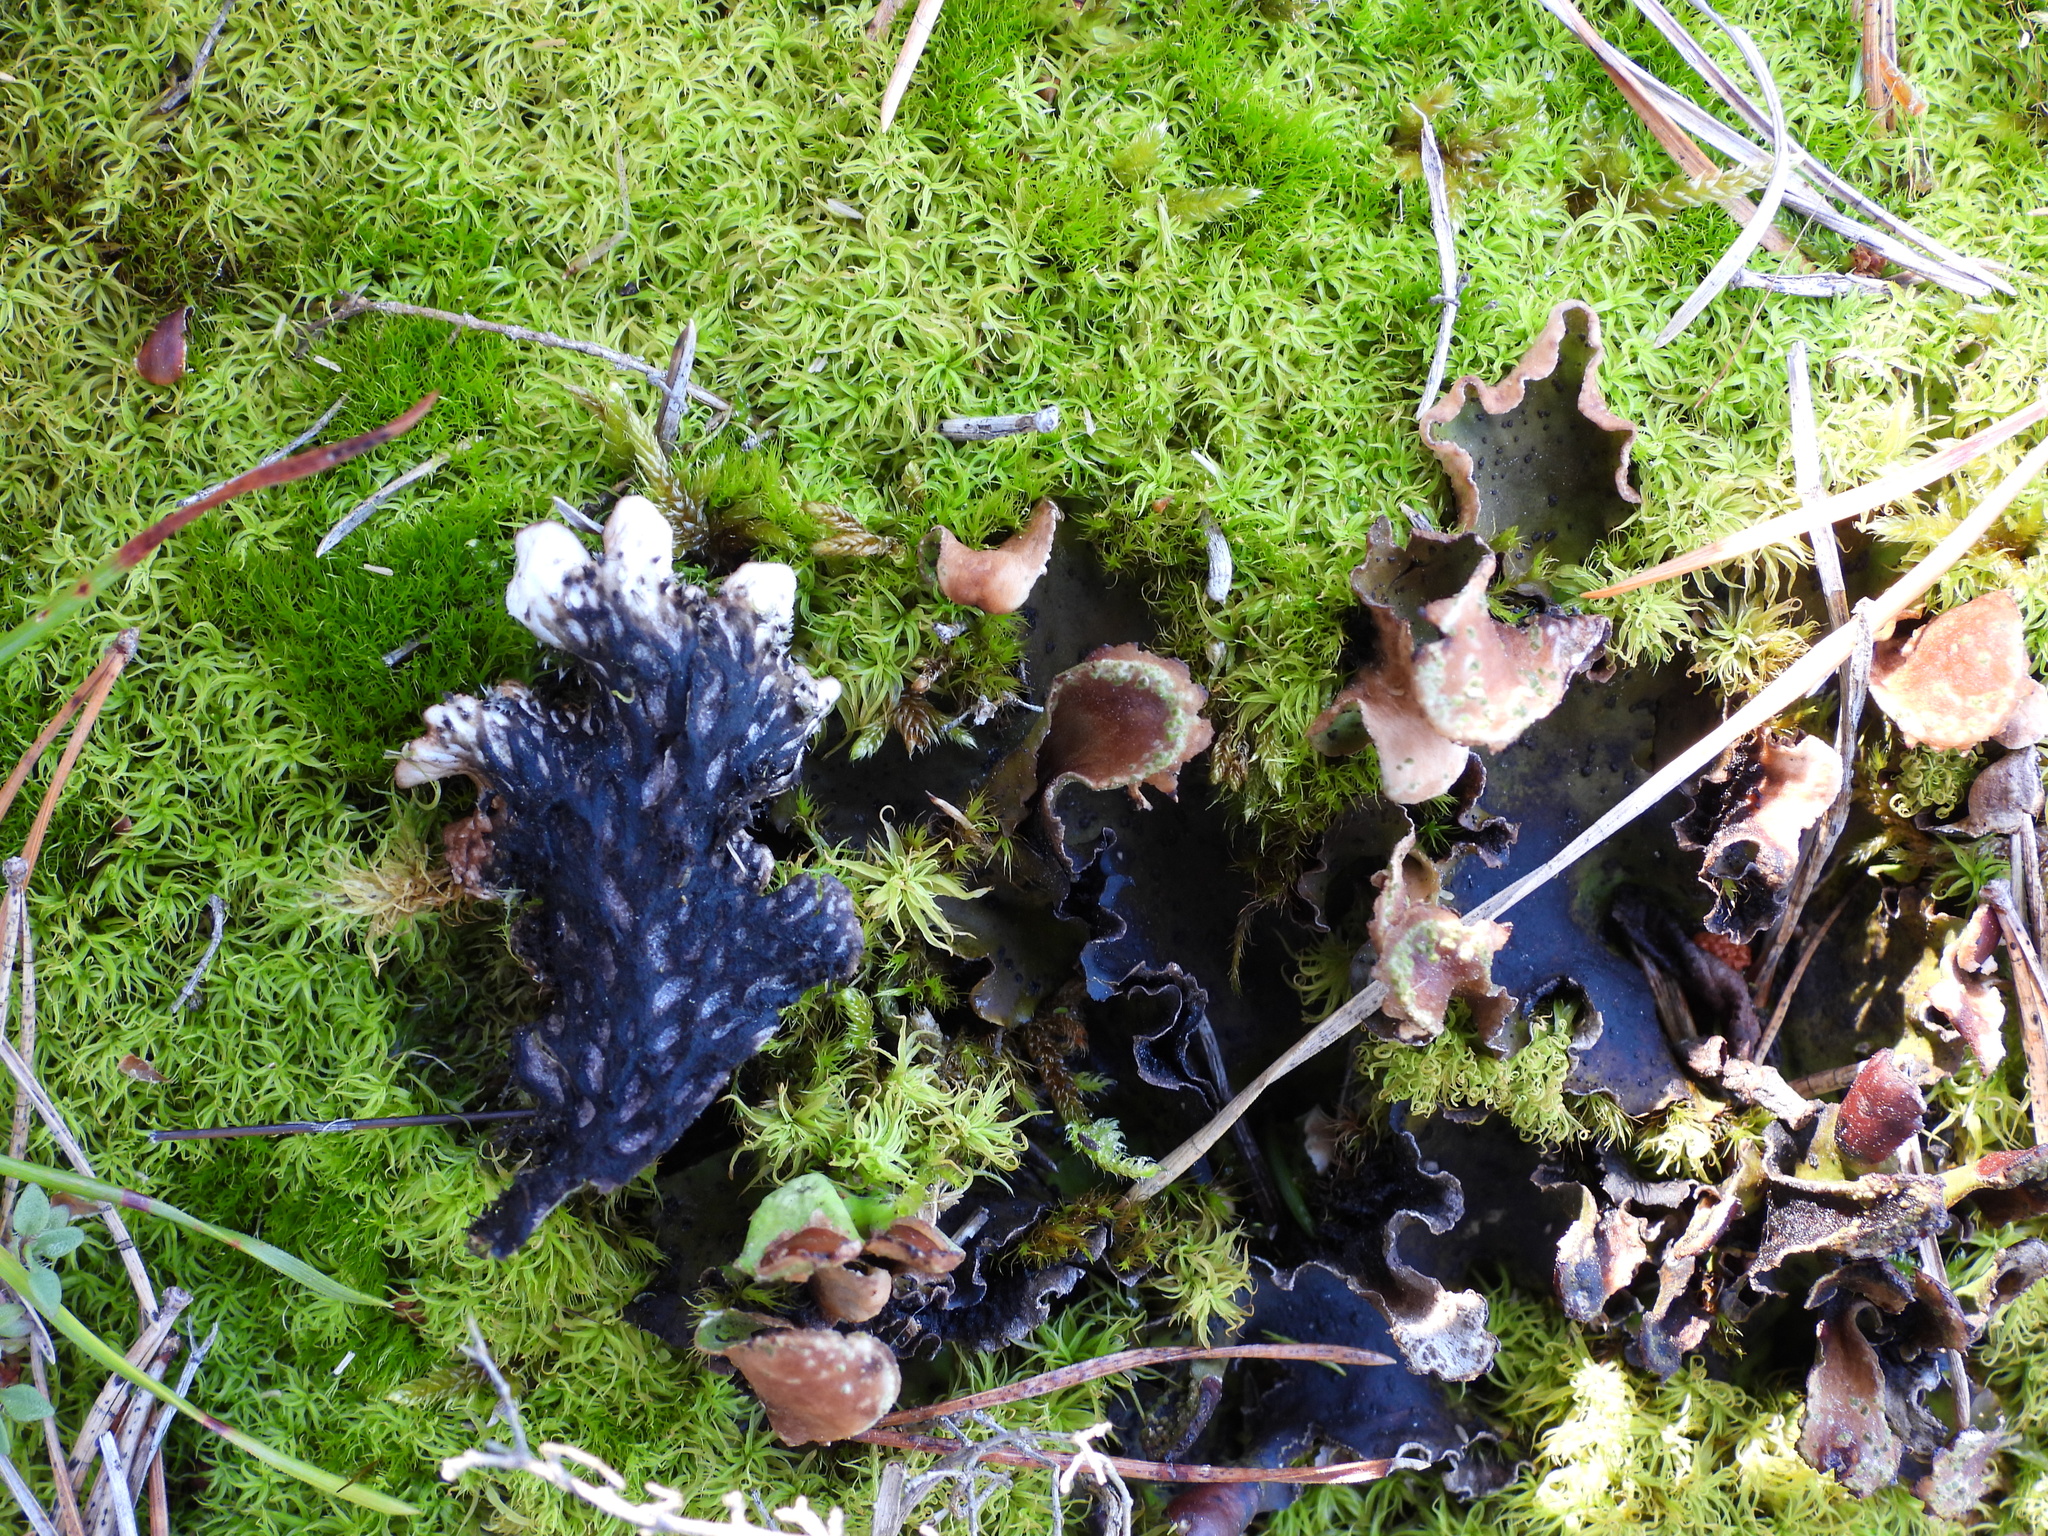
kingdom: Fungi
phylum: Ascomycota
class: Lecanoromycetes
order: Peltigerales
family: Peltigeraceae
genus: Peltigera
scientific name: Peltigera leucophlebia
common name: Ruffled freckle pelt lichen
